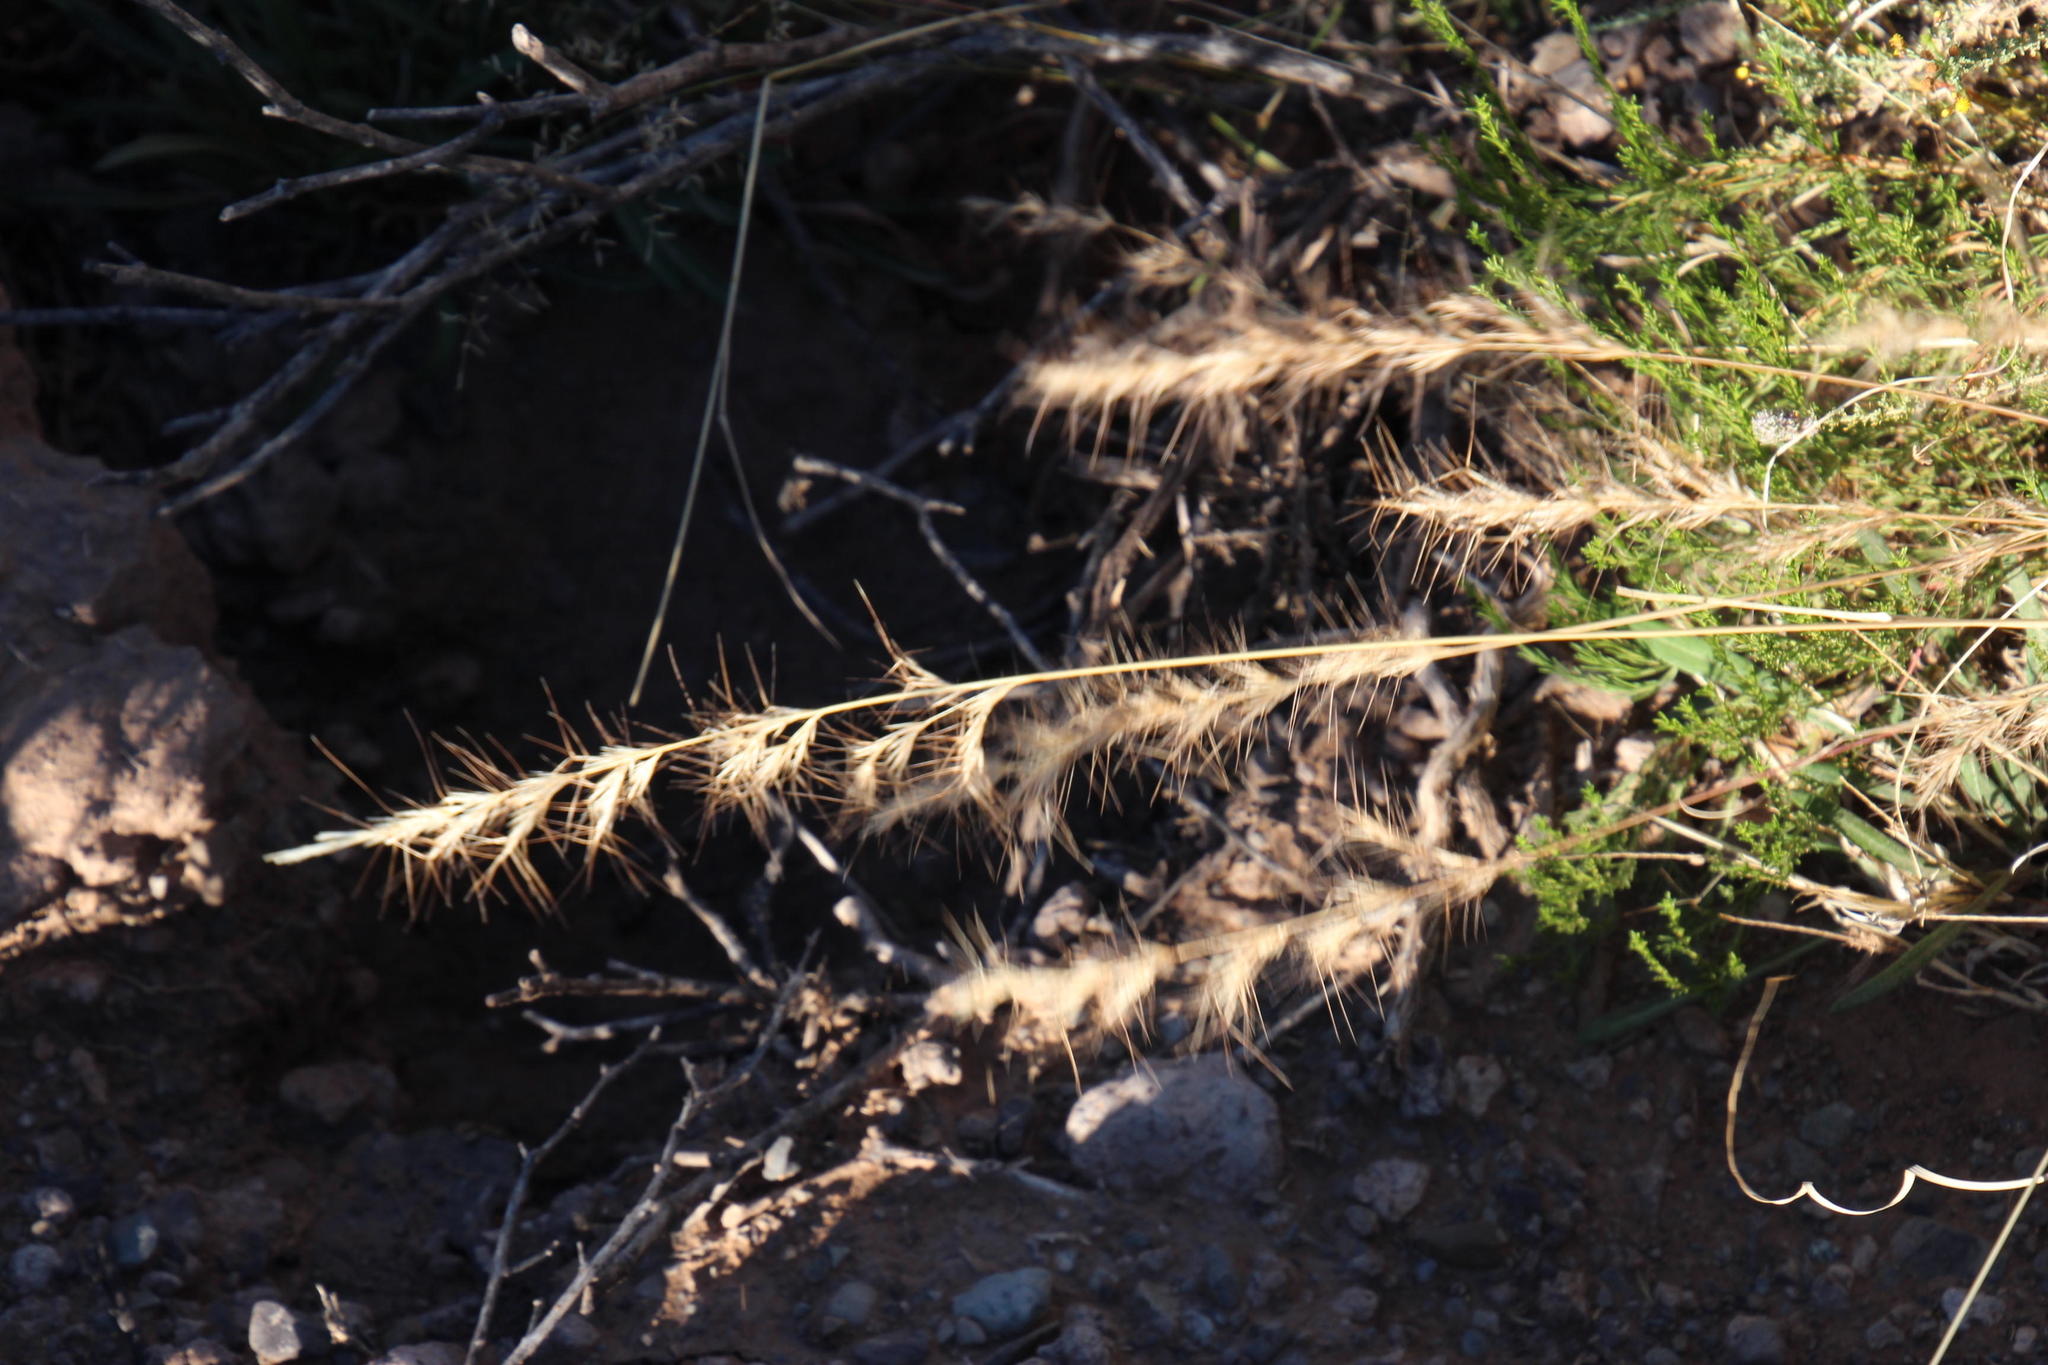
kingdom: Plantae
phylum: Tracheophyta
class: Liliopsida
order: Poales
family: Poaceae
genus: Aristida
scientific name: Aristida adscensionis
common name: Sixweeks threeawn
